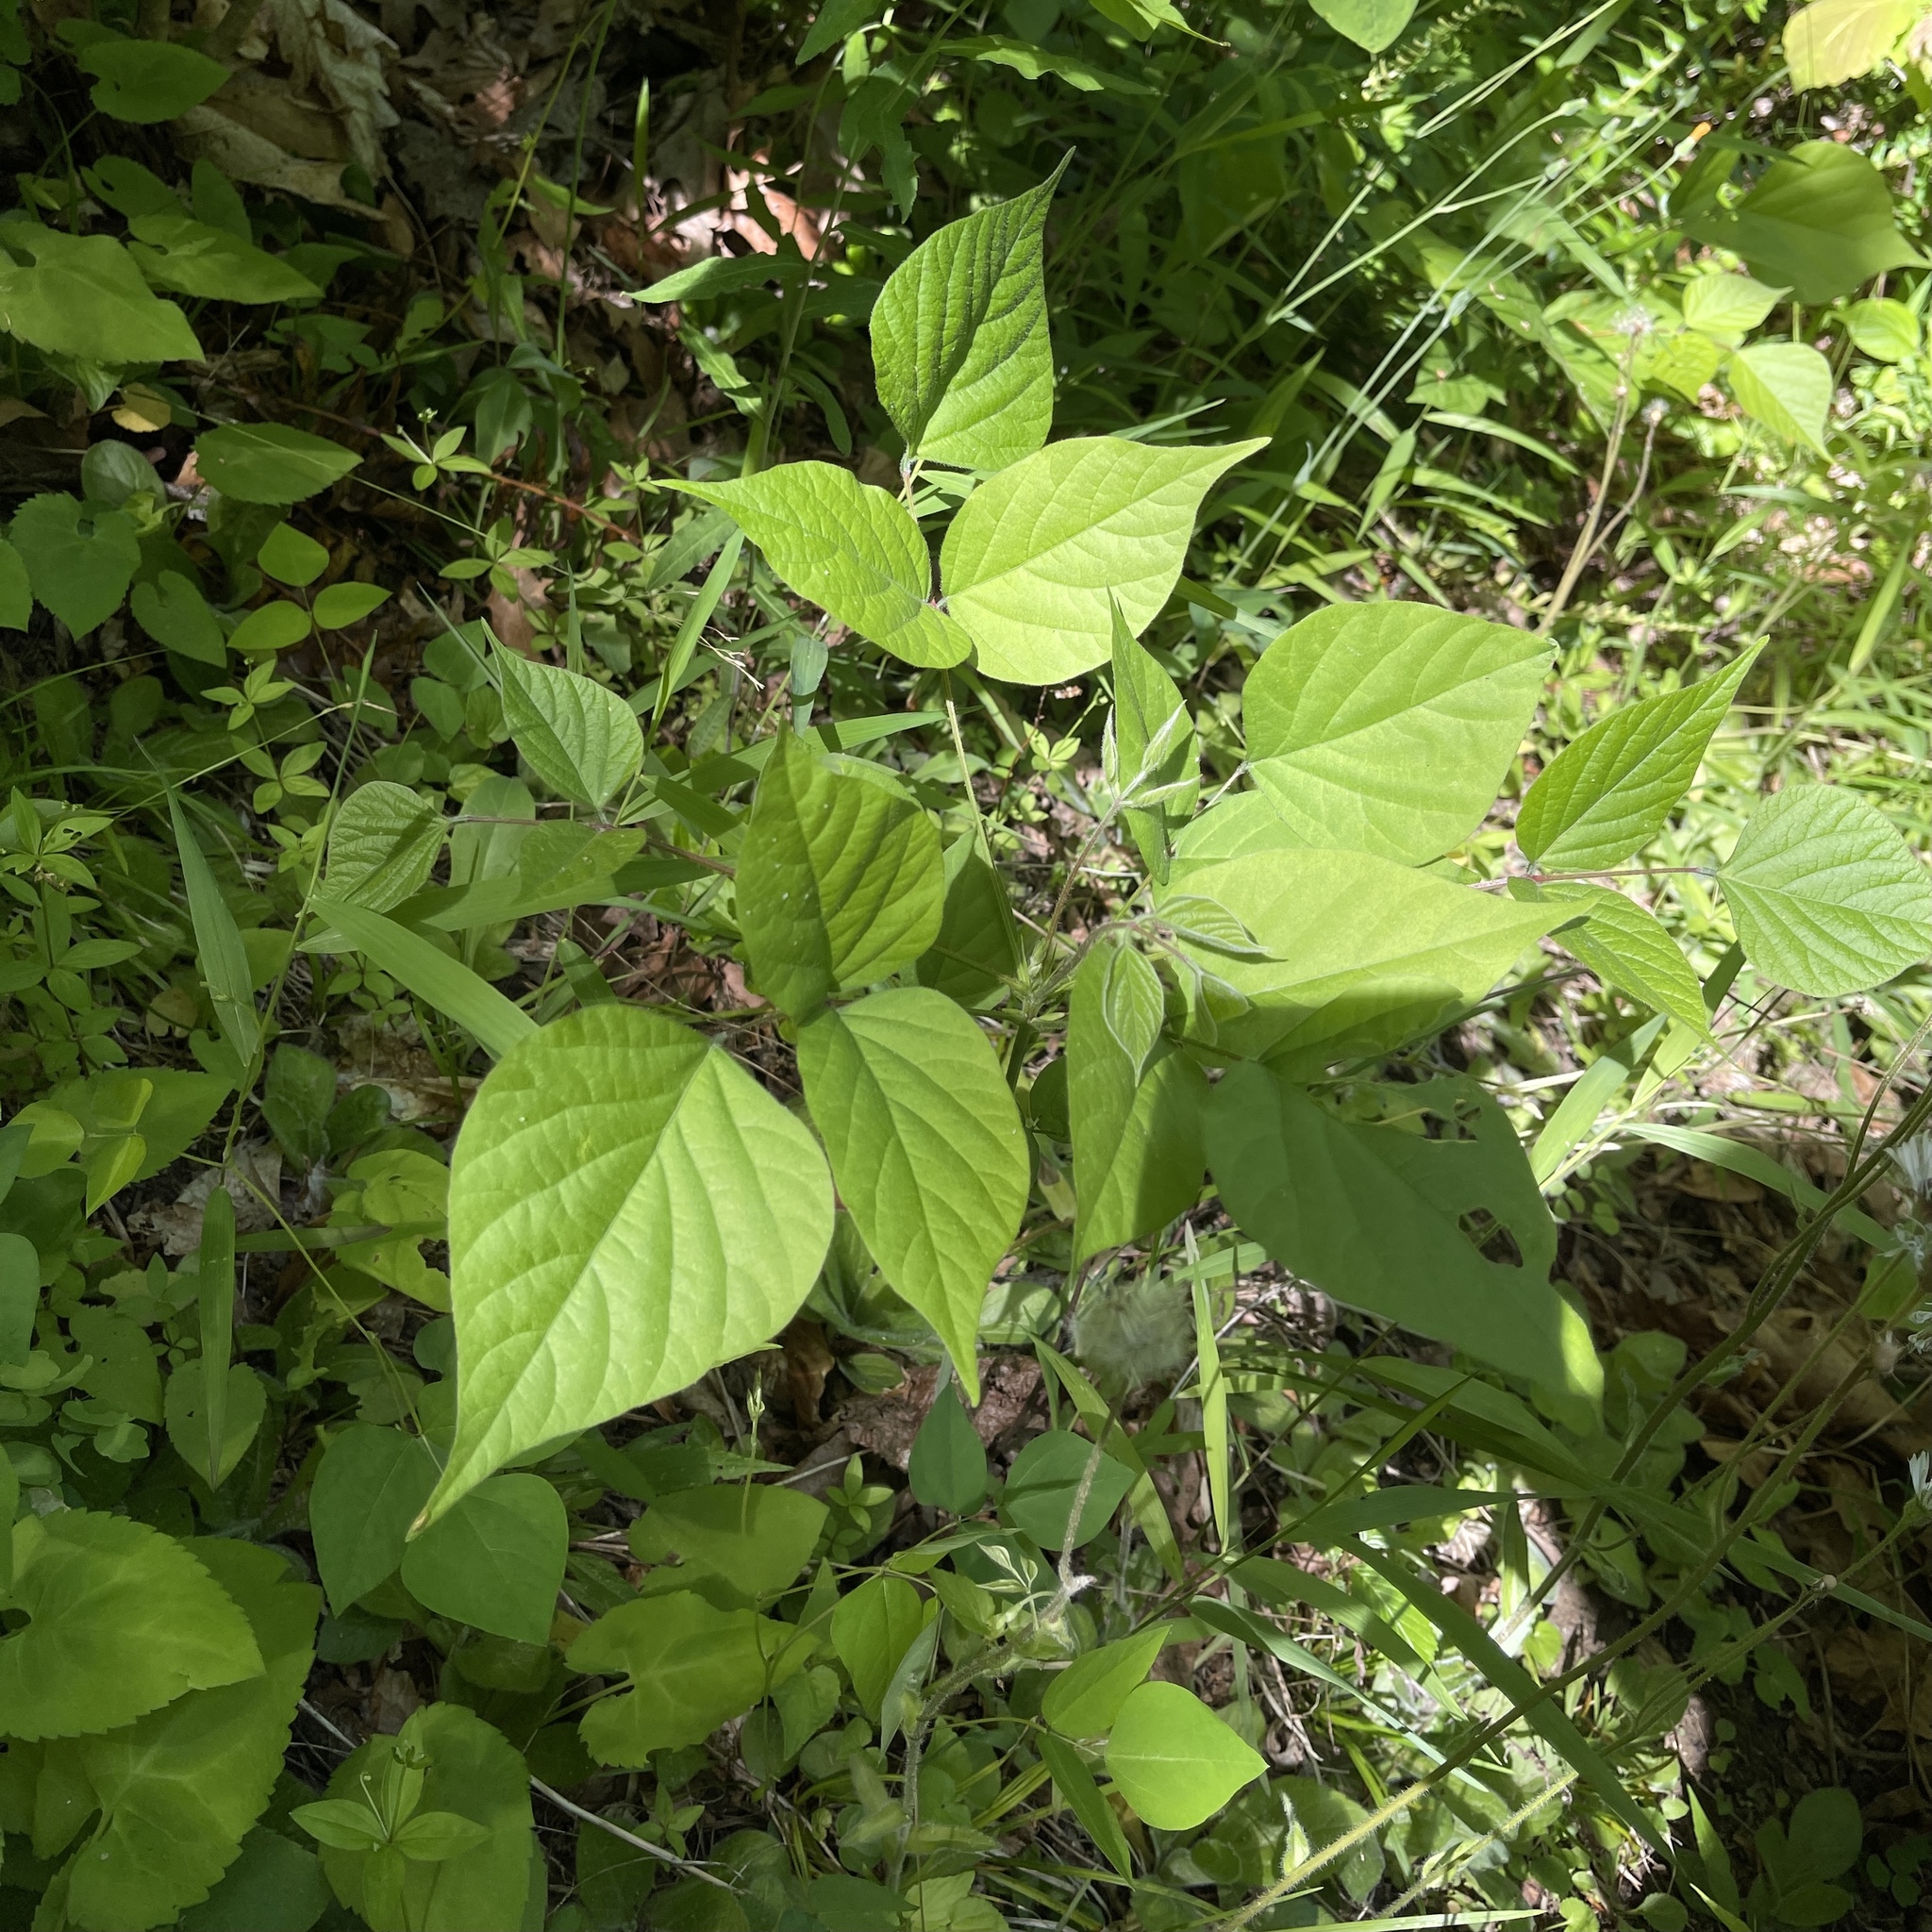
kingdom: Plantae
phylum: Tracheophyta
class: Magnoliopsida
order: Fabales
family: Fabaceae
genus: Hylodesmum
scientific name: Hylodesmum glutinosum
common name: Clustered-leaved tick-trefoil
